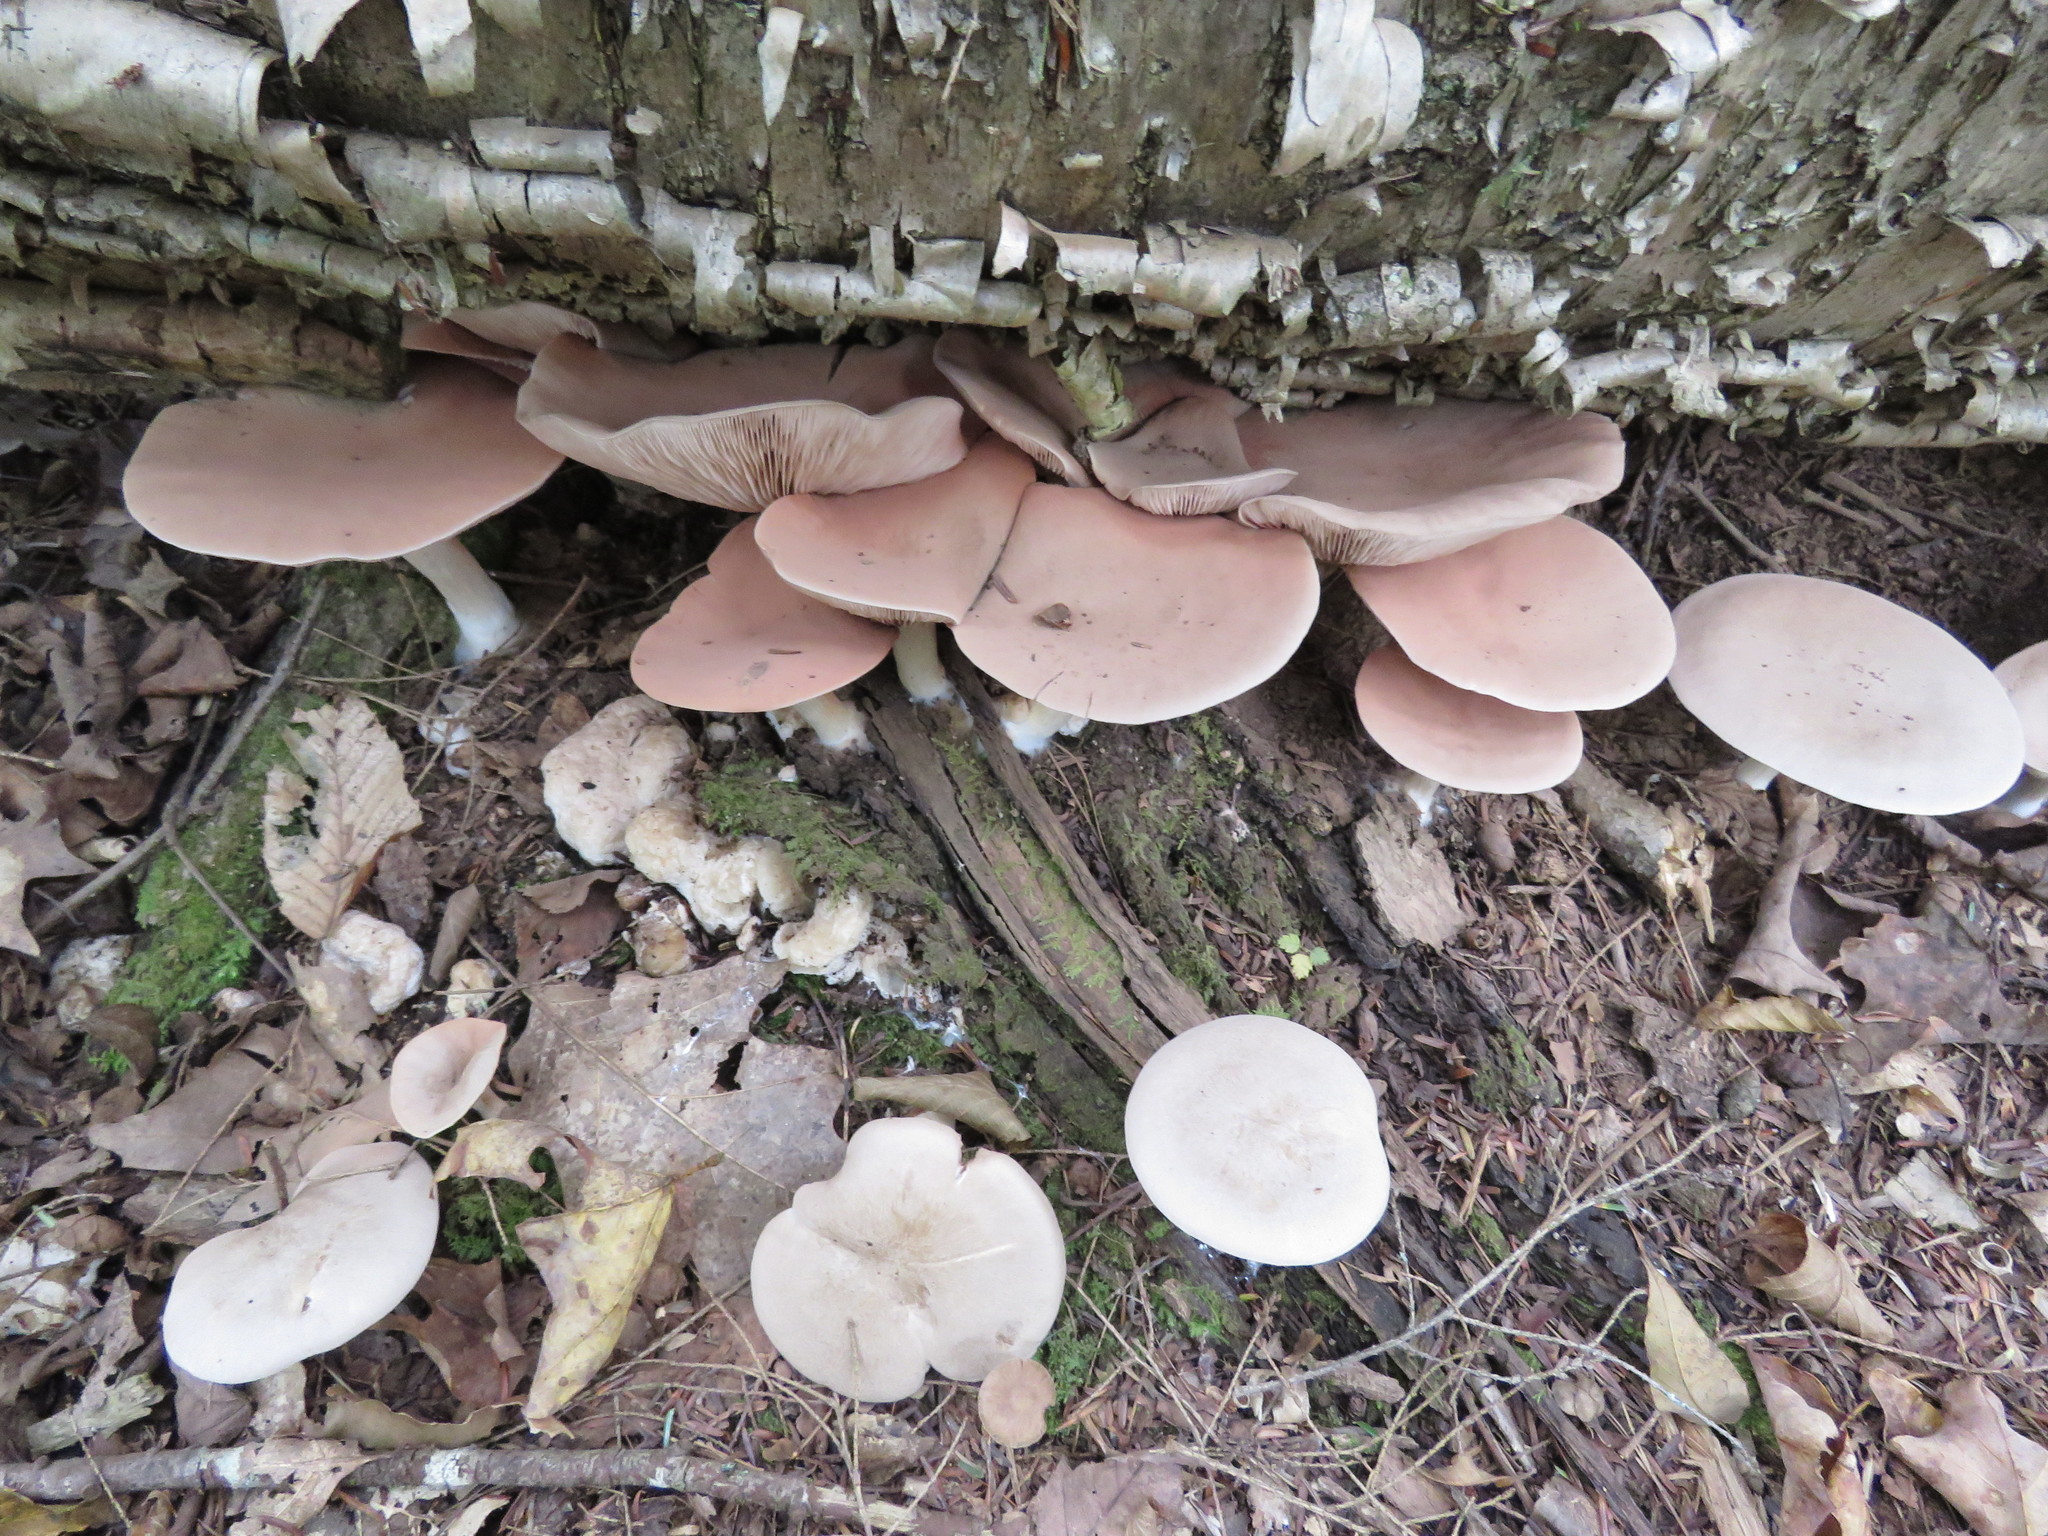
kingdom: Fungi
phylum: Basidiomycota
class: Agaricomycetes
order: Agaricales
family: Entolomataceae
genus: Entoloma
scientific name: Entoloma abortivum
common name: Aborted entoloma
